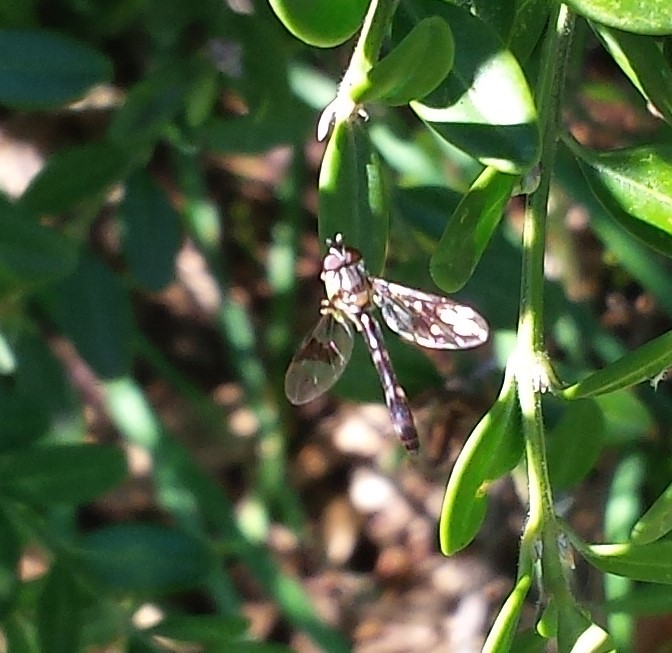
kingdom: Animalia
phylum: Arthropoda
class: Insecta
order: Diptera
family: Syrphidae
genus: Hypocritanus
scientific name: Hypocritanus fascipennis
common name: Eastern band-winged hover fly
